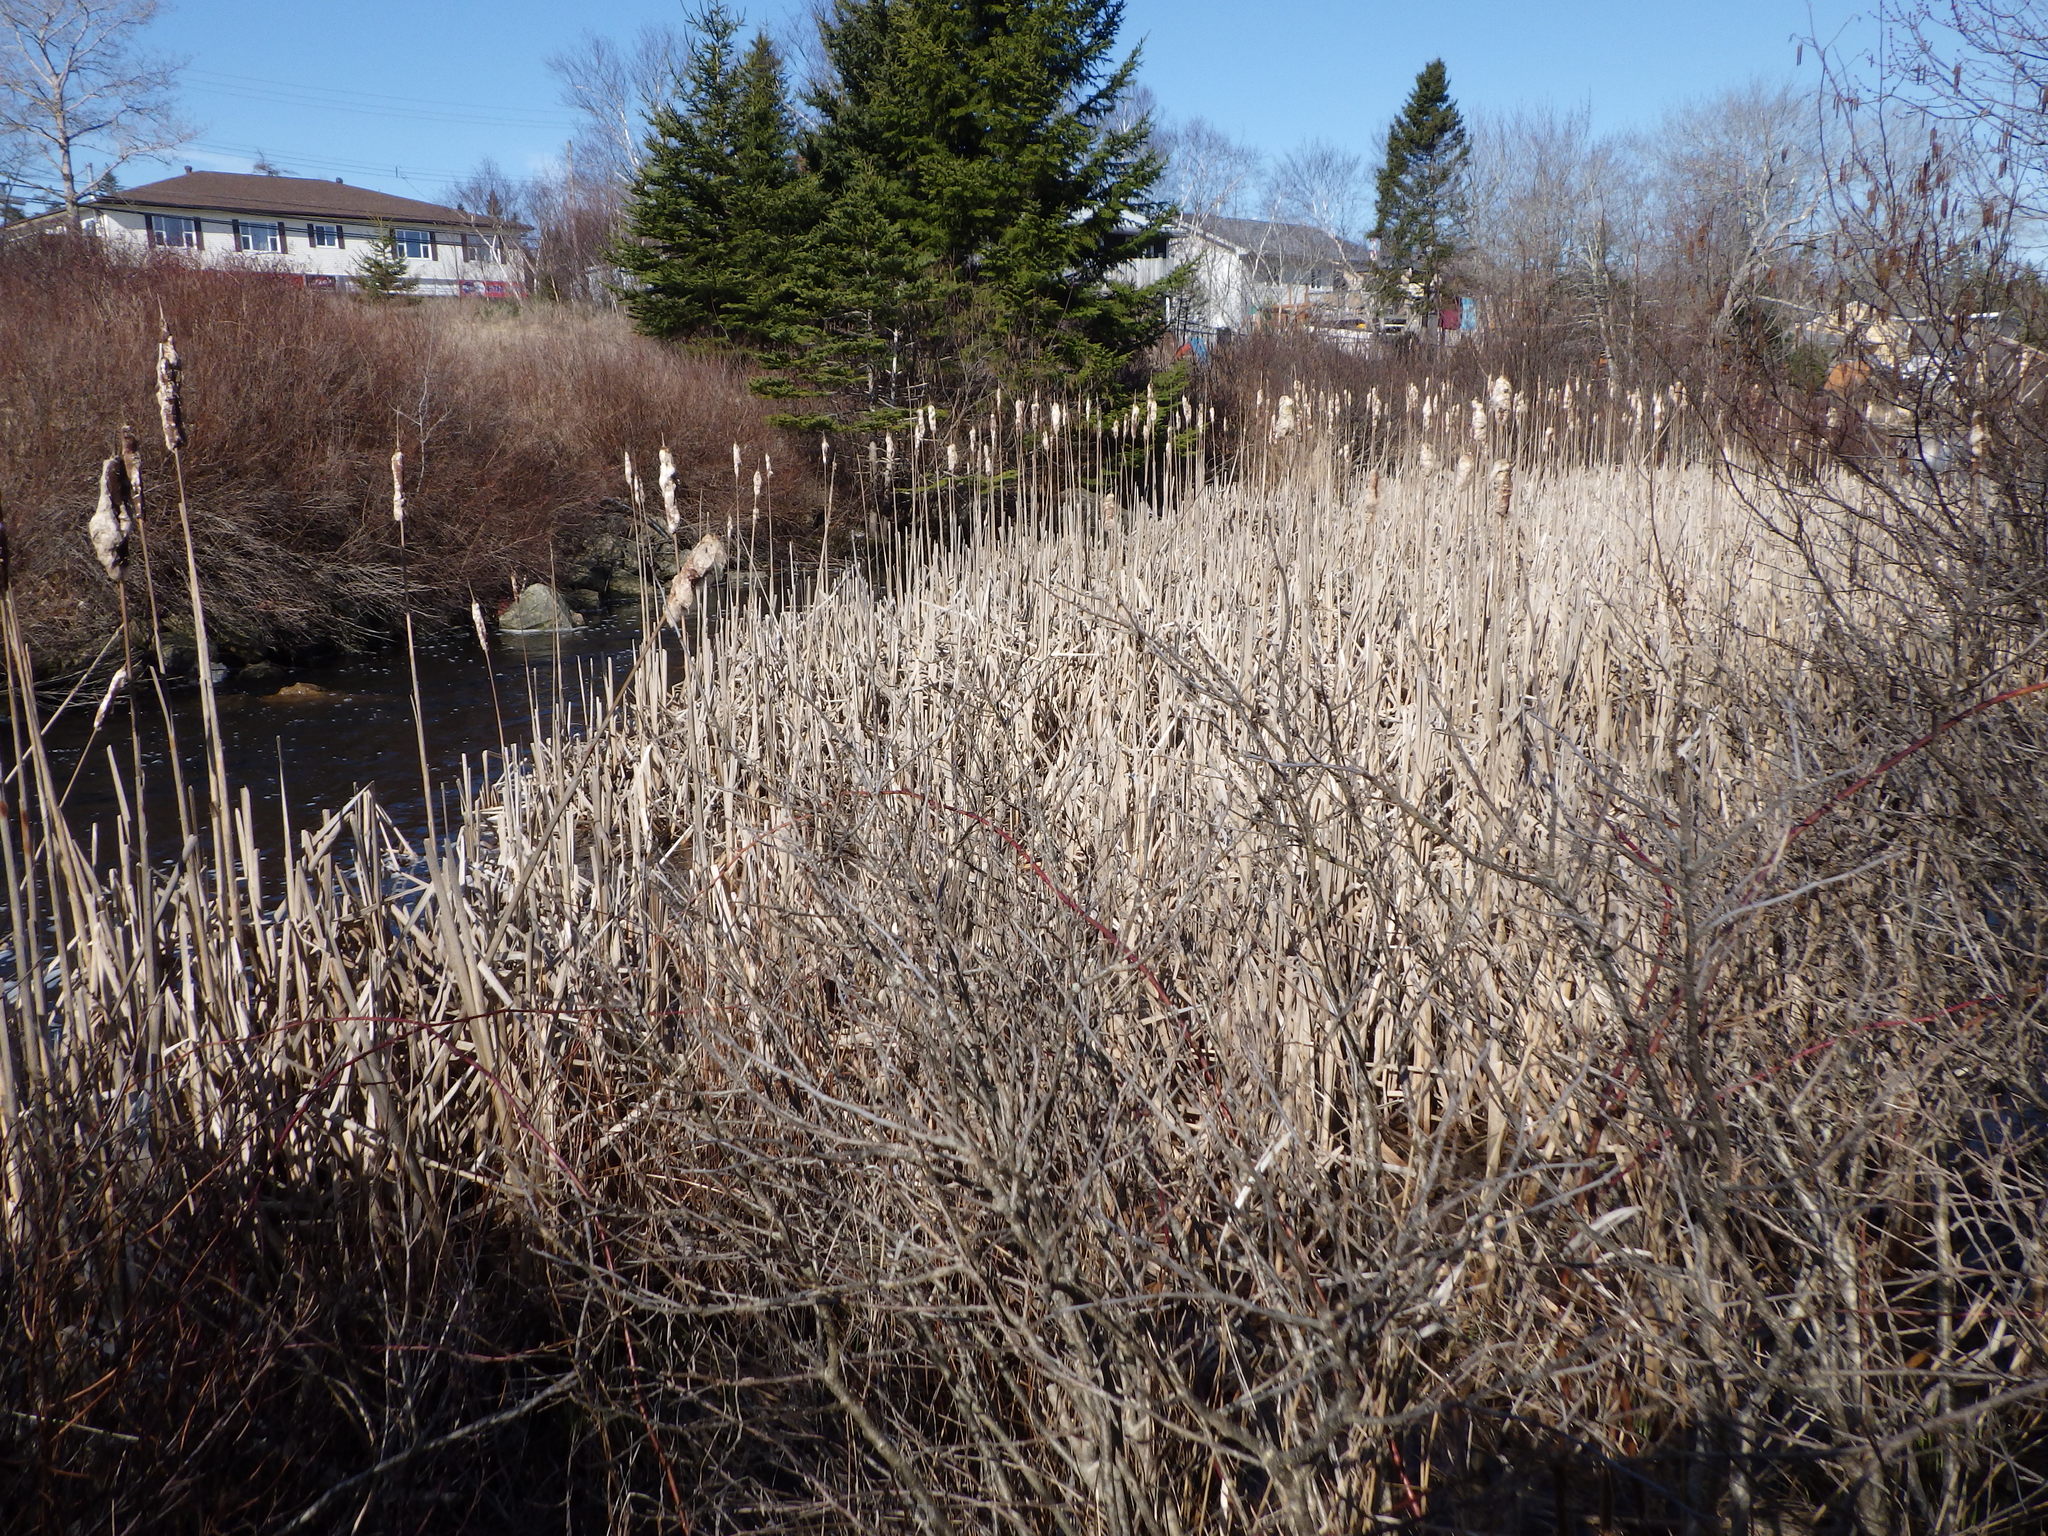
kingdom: Plantae
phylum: Tracheophyta
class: Liliopsida
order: Poales
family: Typhaceae
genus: Typha
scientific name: Typha latifolia
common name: Broadleaf cattail
